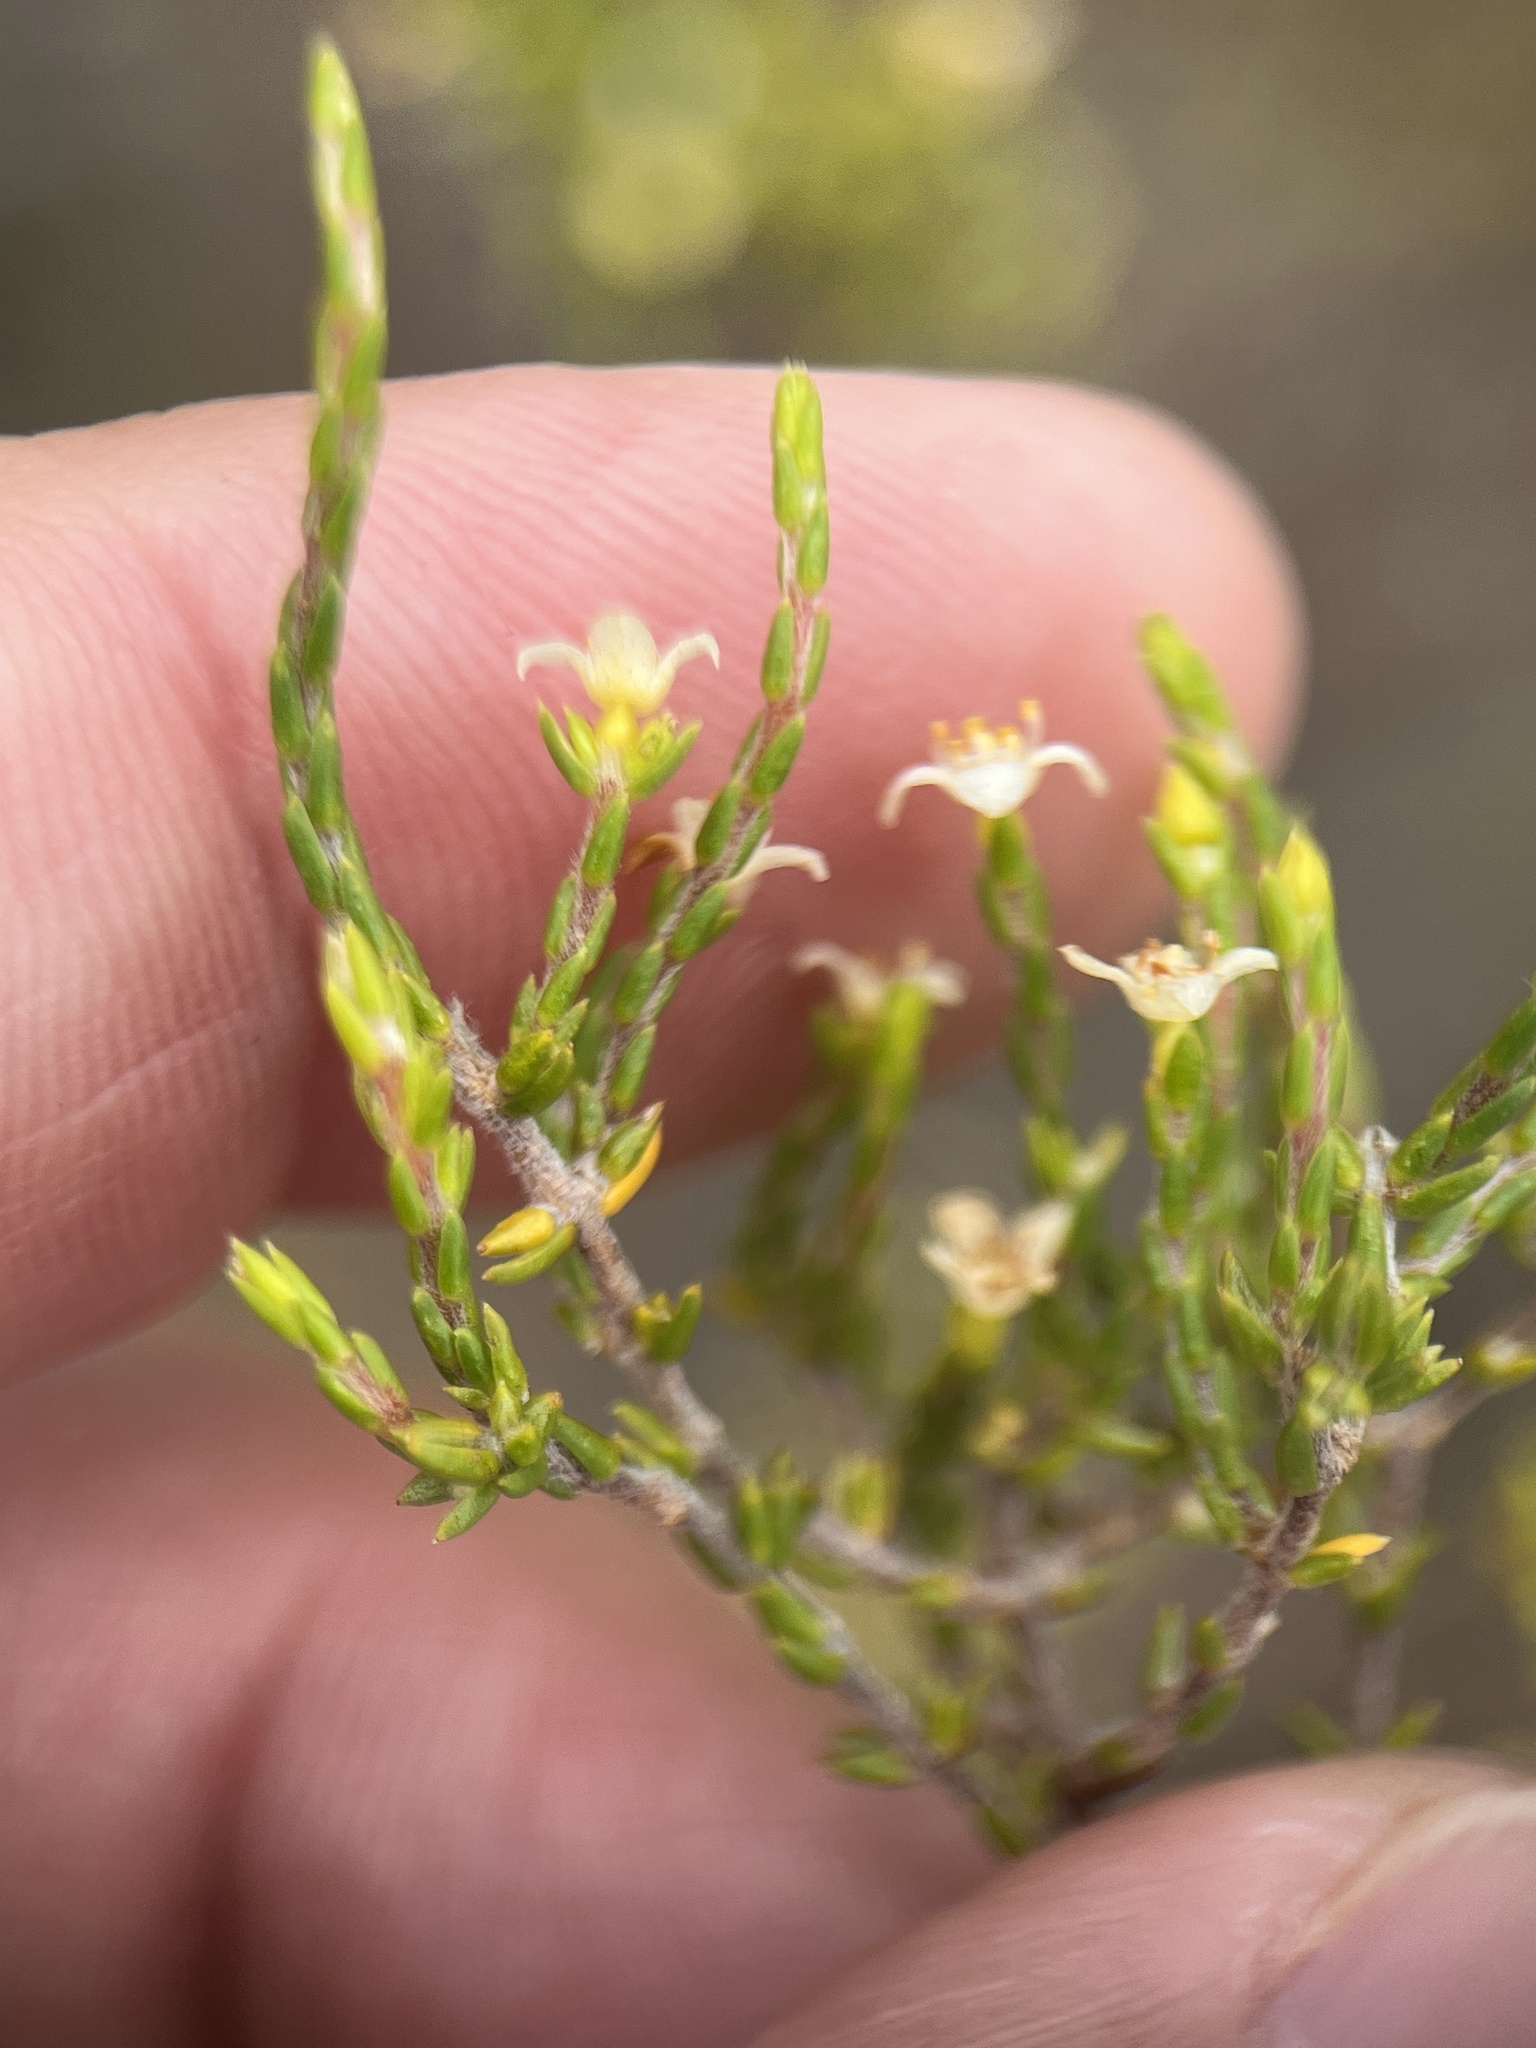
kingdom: Plantae
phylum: Tracheophyta
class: Magnoliopsida
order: Malvales
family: Thymelaeaceae
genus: Lachnaea
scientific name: Lachnaea axillaris
